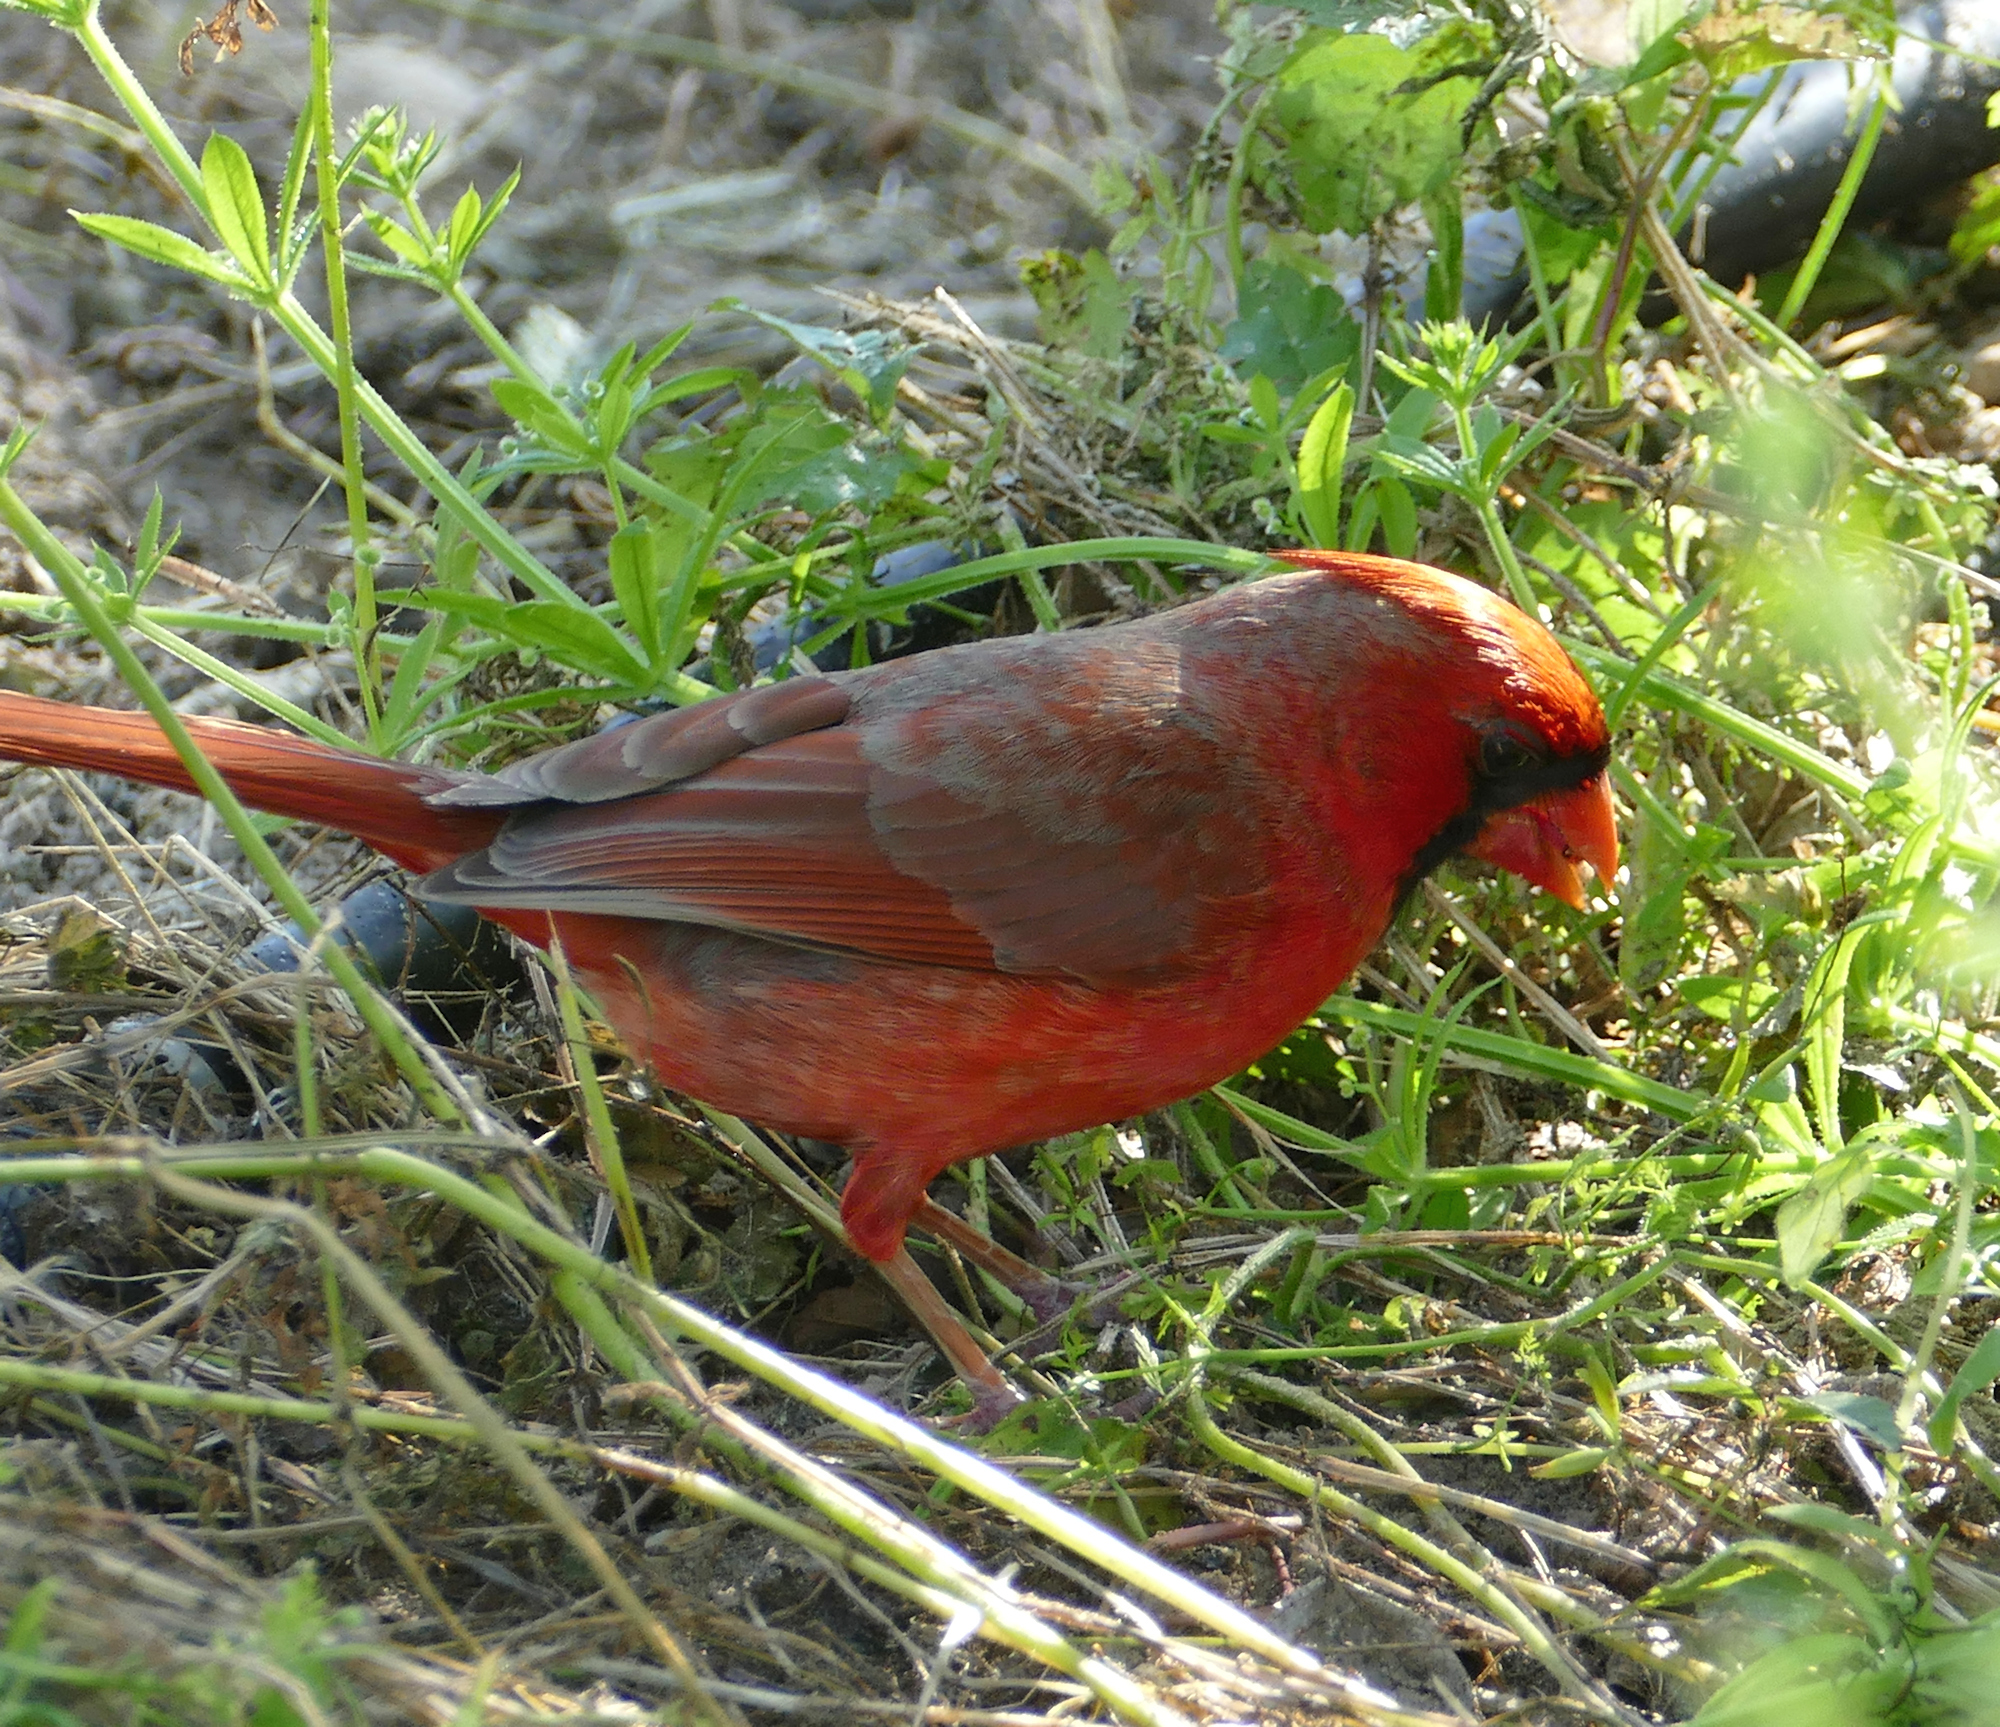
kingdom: Animalia
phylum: Chordata
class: Aves
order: Passeriformes
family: Cardinalidae
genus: Cardinalis
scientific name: Cardinalis cardinalis
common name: Northern cardinal
